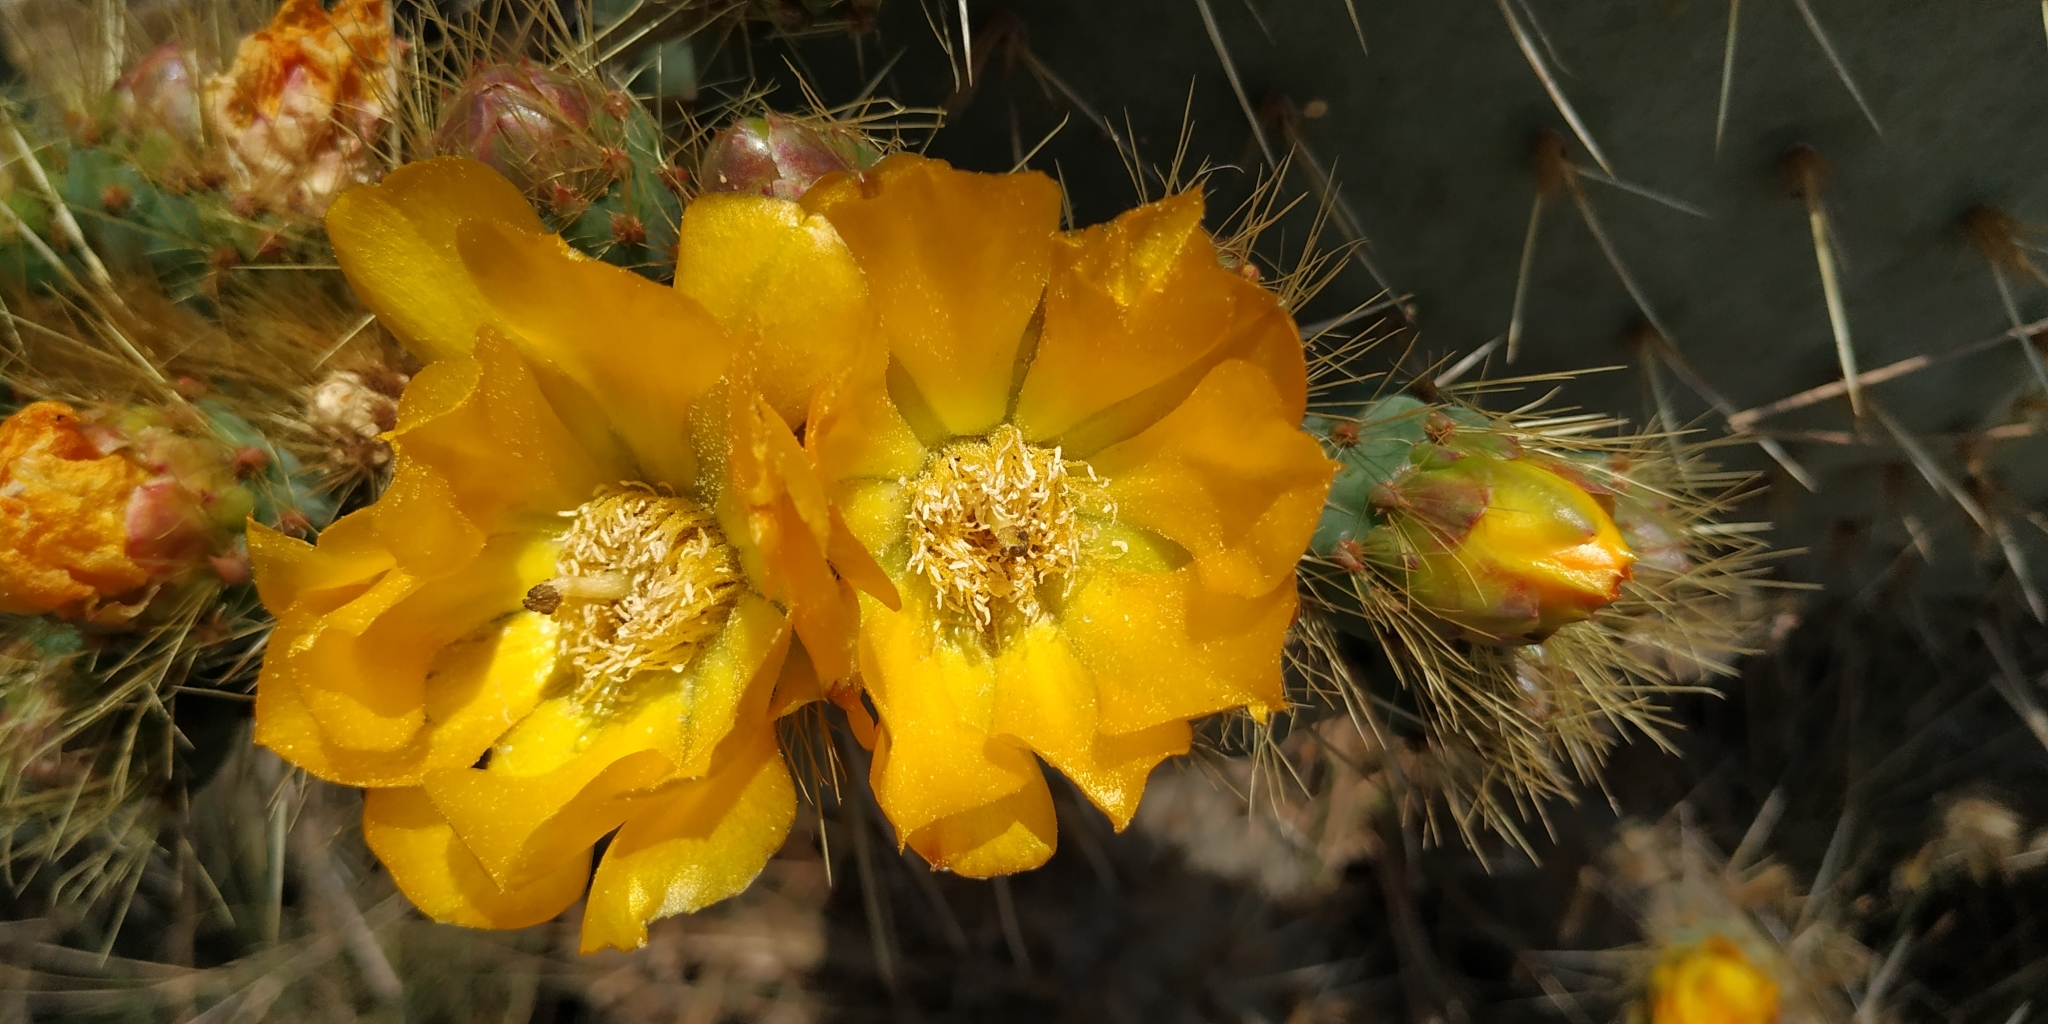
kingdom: Plantae
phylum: Tracheophyta
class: Magnoliopsida
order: Caryophyllales
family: Cactaceae
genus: Opuntia
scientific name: Opuntia robusta
